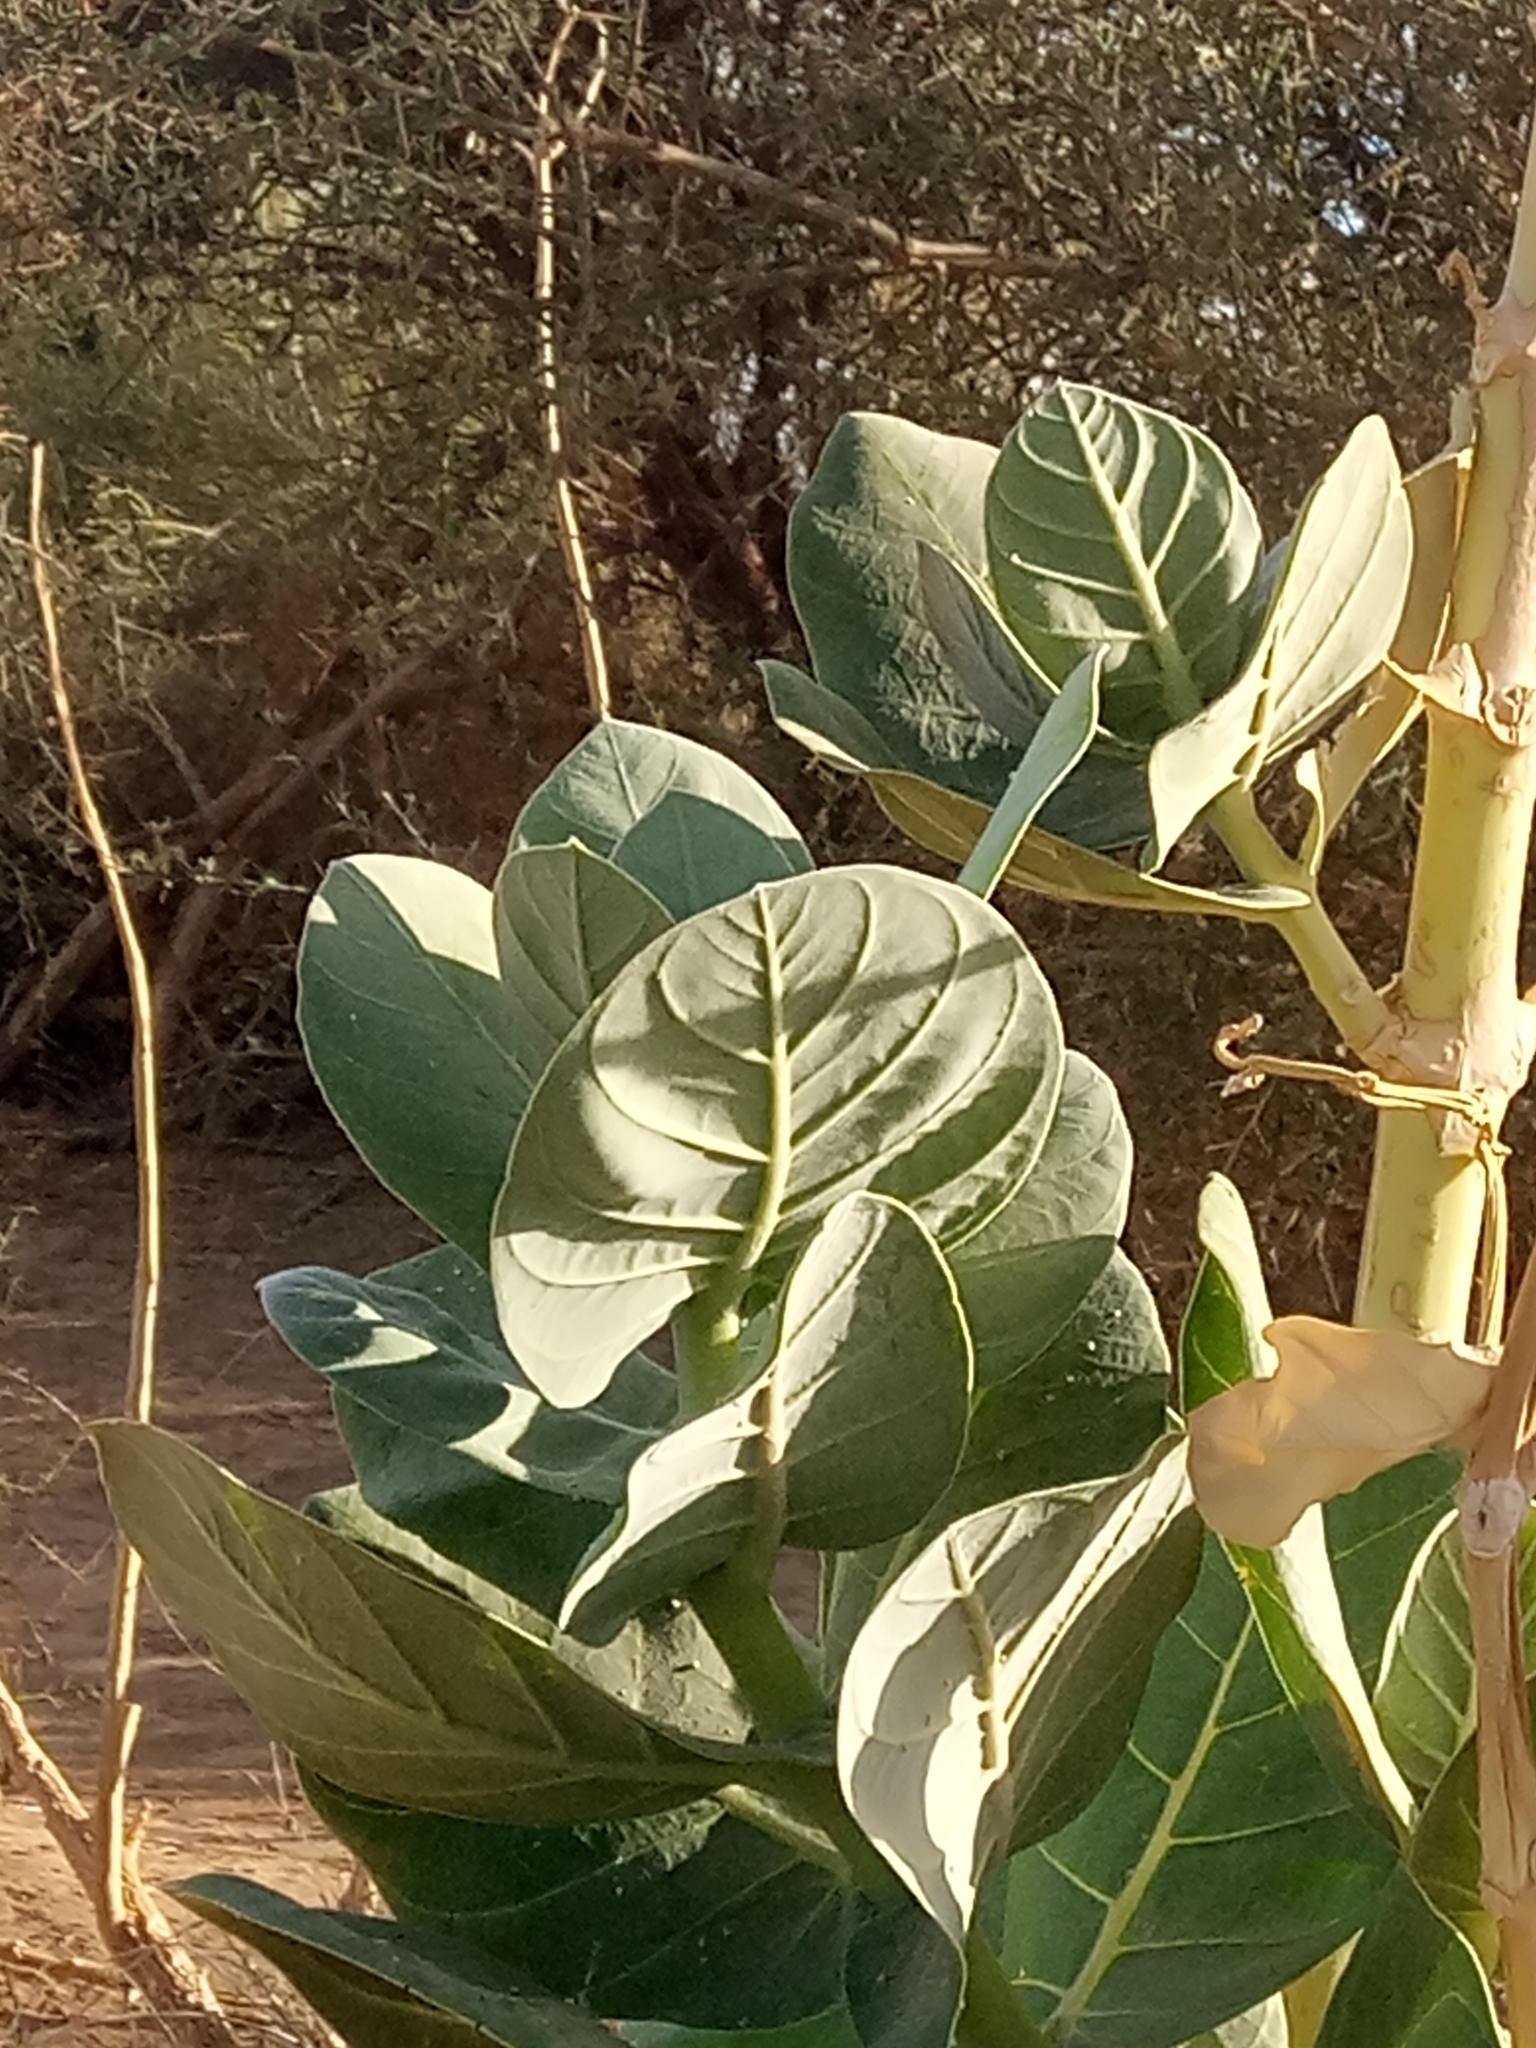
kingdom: Plantae
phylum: Tracheophyta
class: Magnoliopsida
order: Gentianales
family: Apocynaceae
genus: Calotropis
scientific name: Calotropis procera
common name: Roostertree
